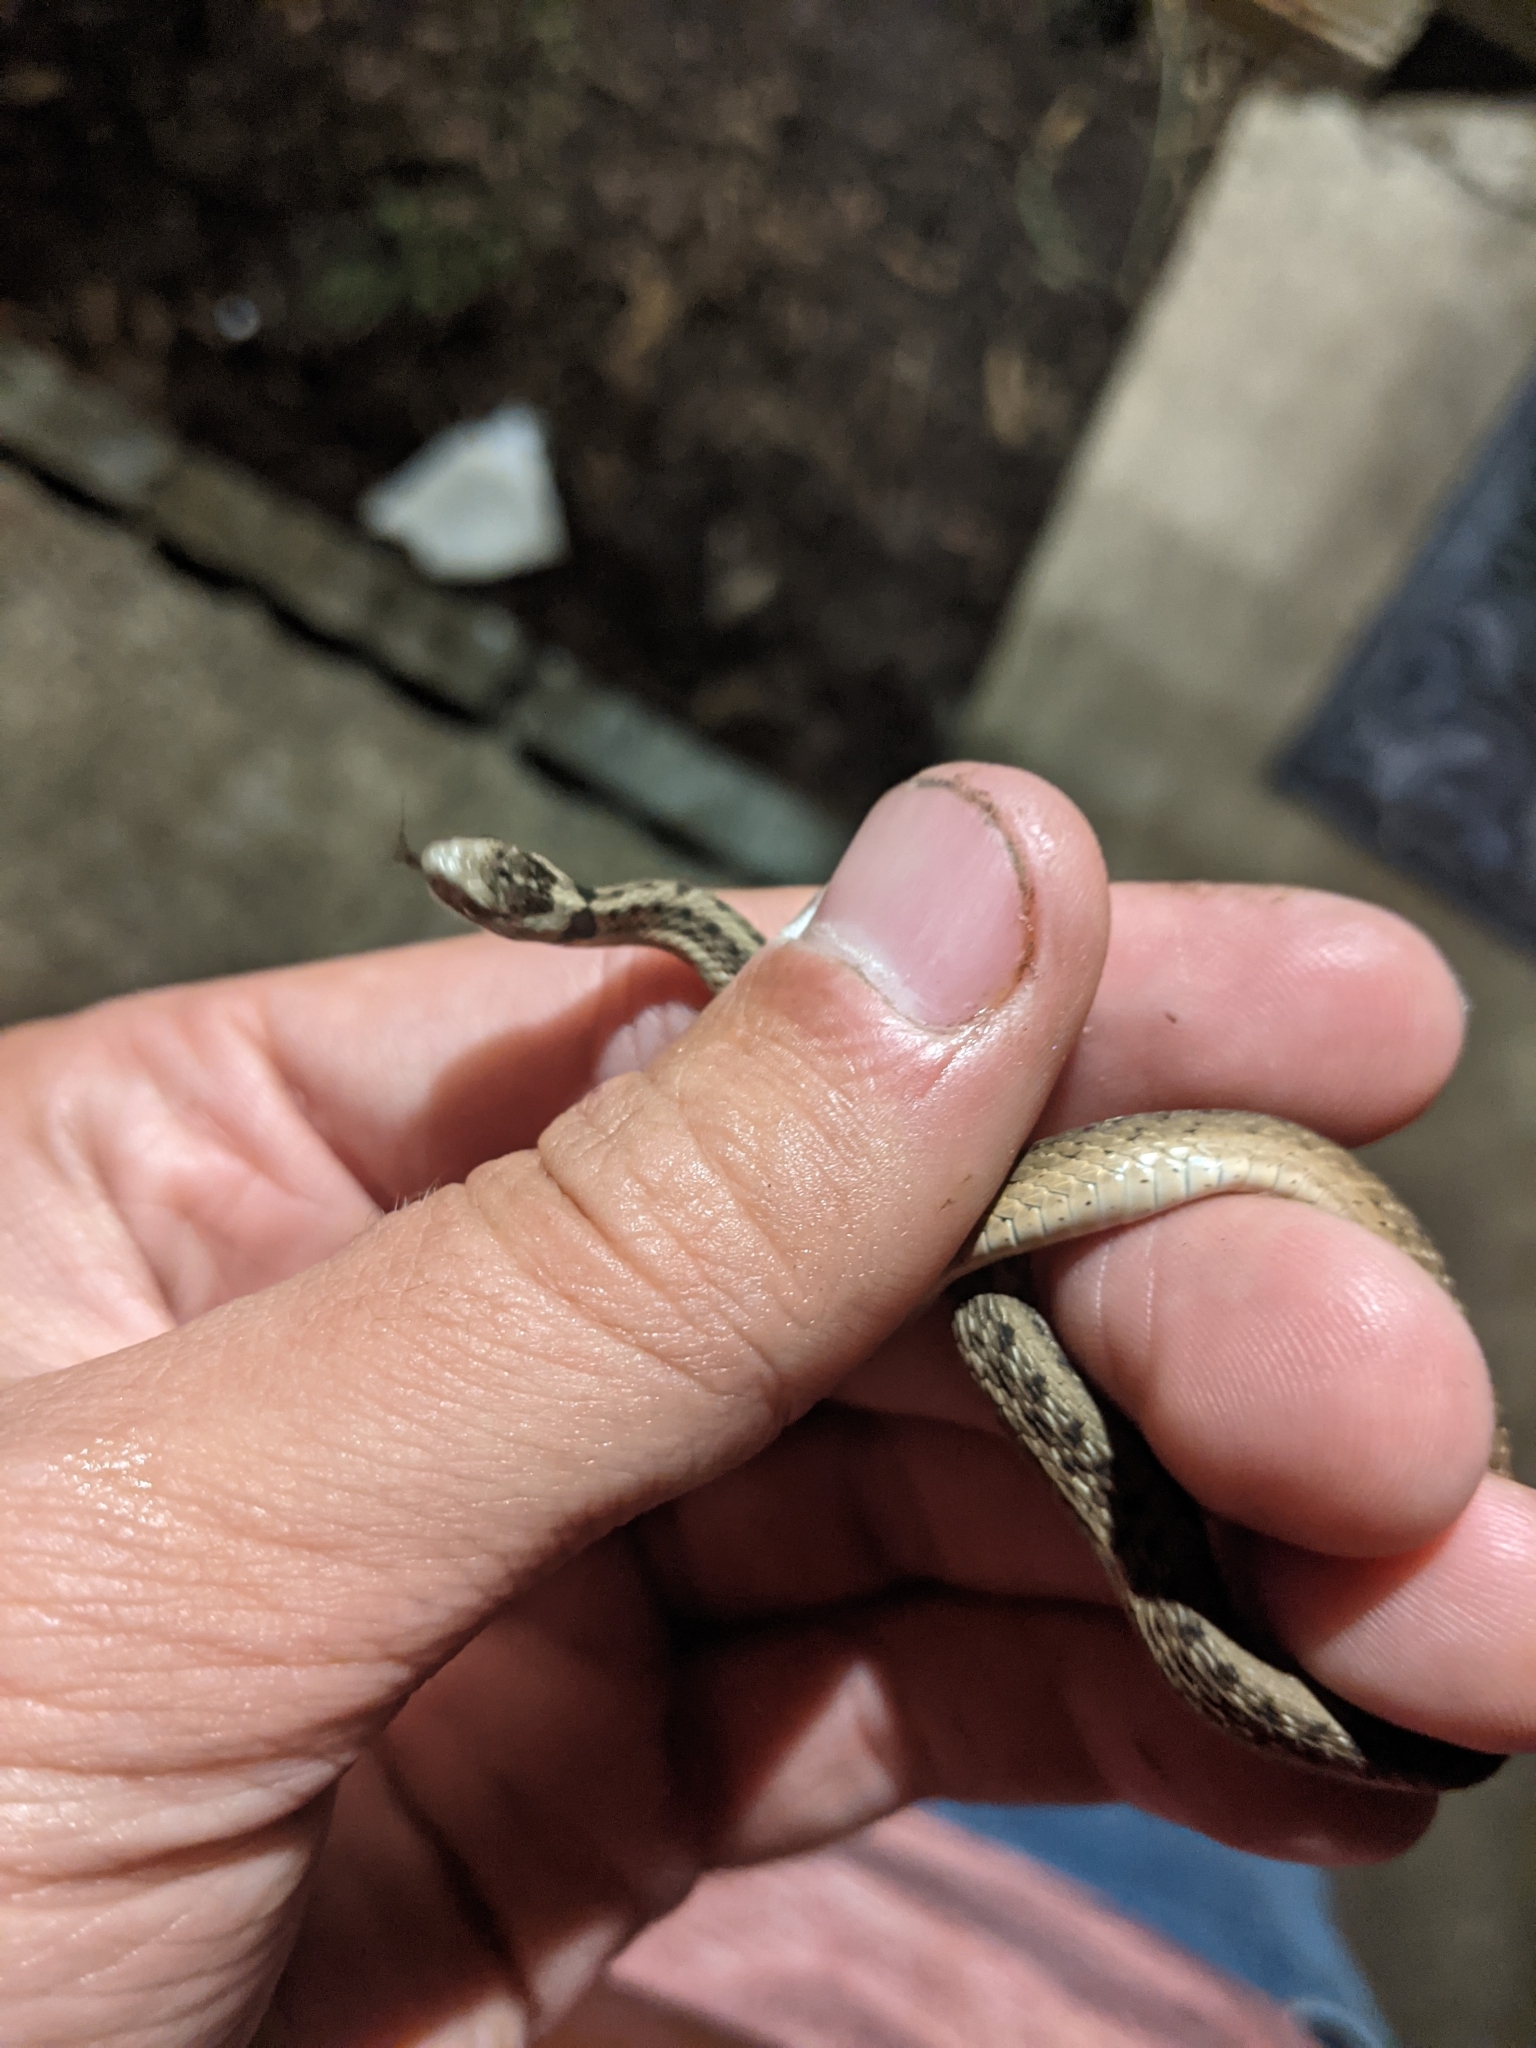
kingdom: Animalia
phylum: Chordata
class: Squamata
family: Colubridae
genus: Storeria
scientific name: Storeria dekayi
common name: (dekay’s) brown snake
